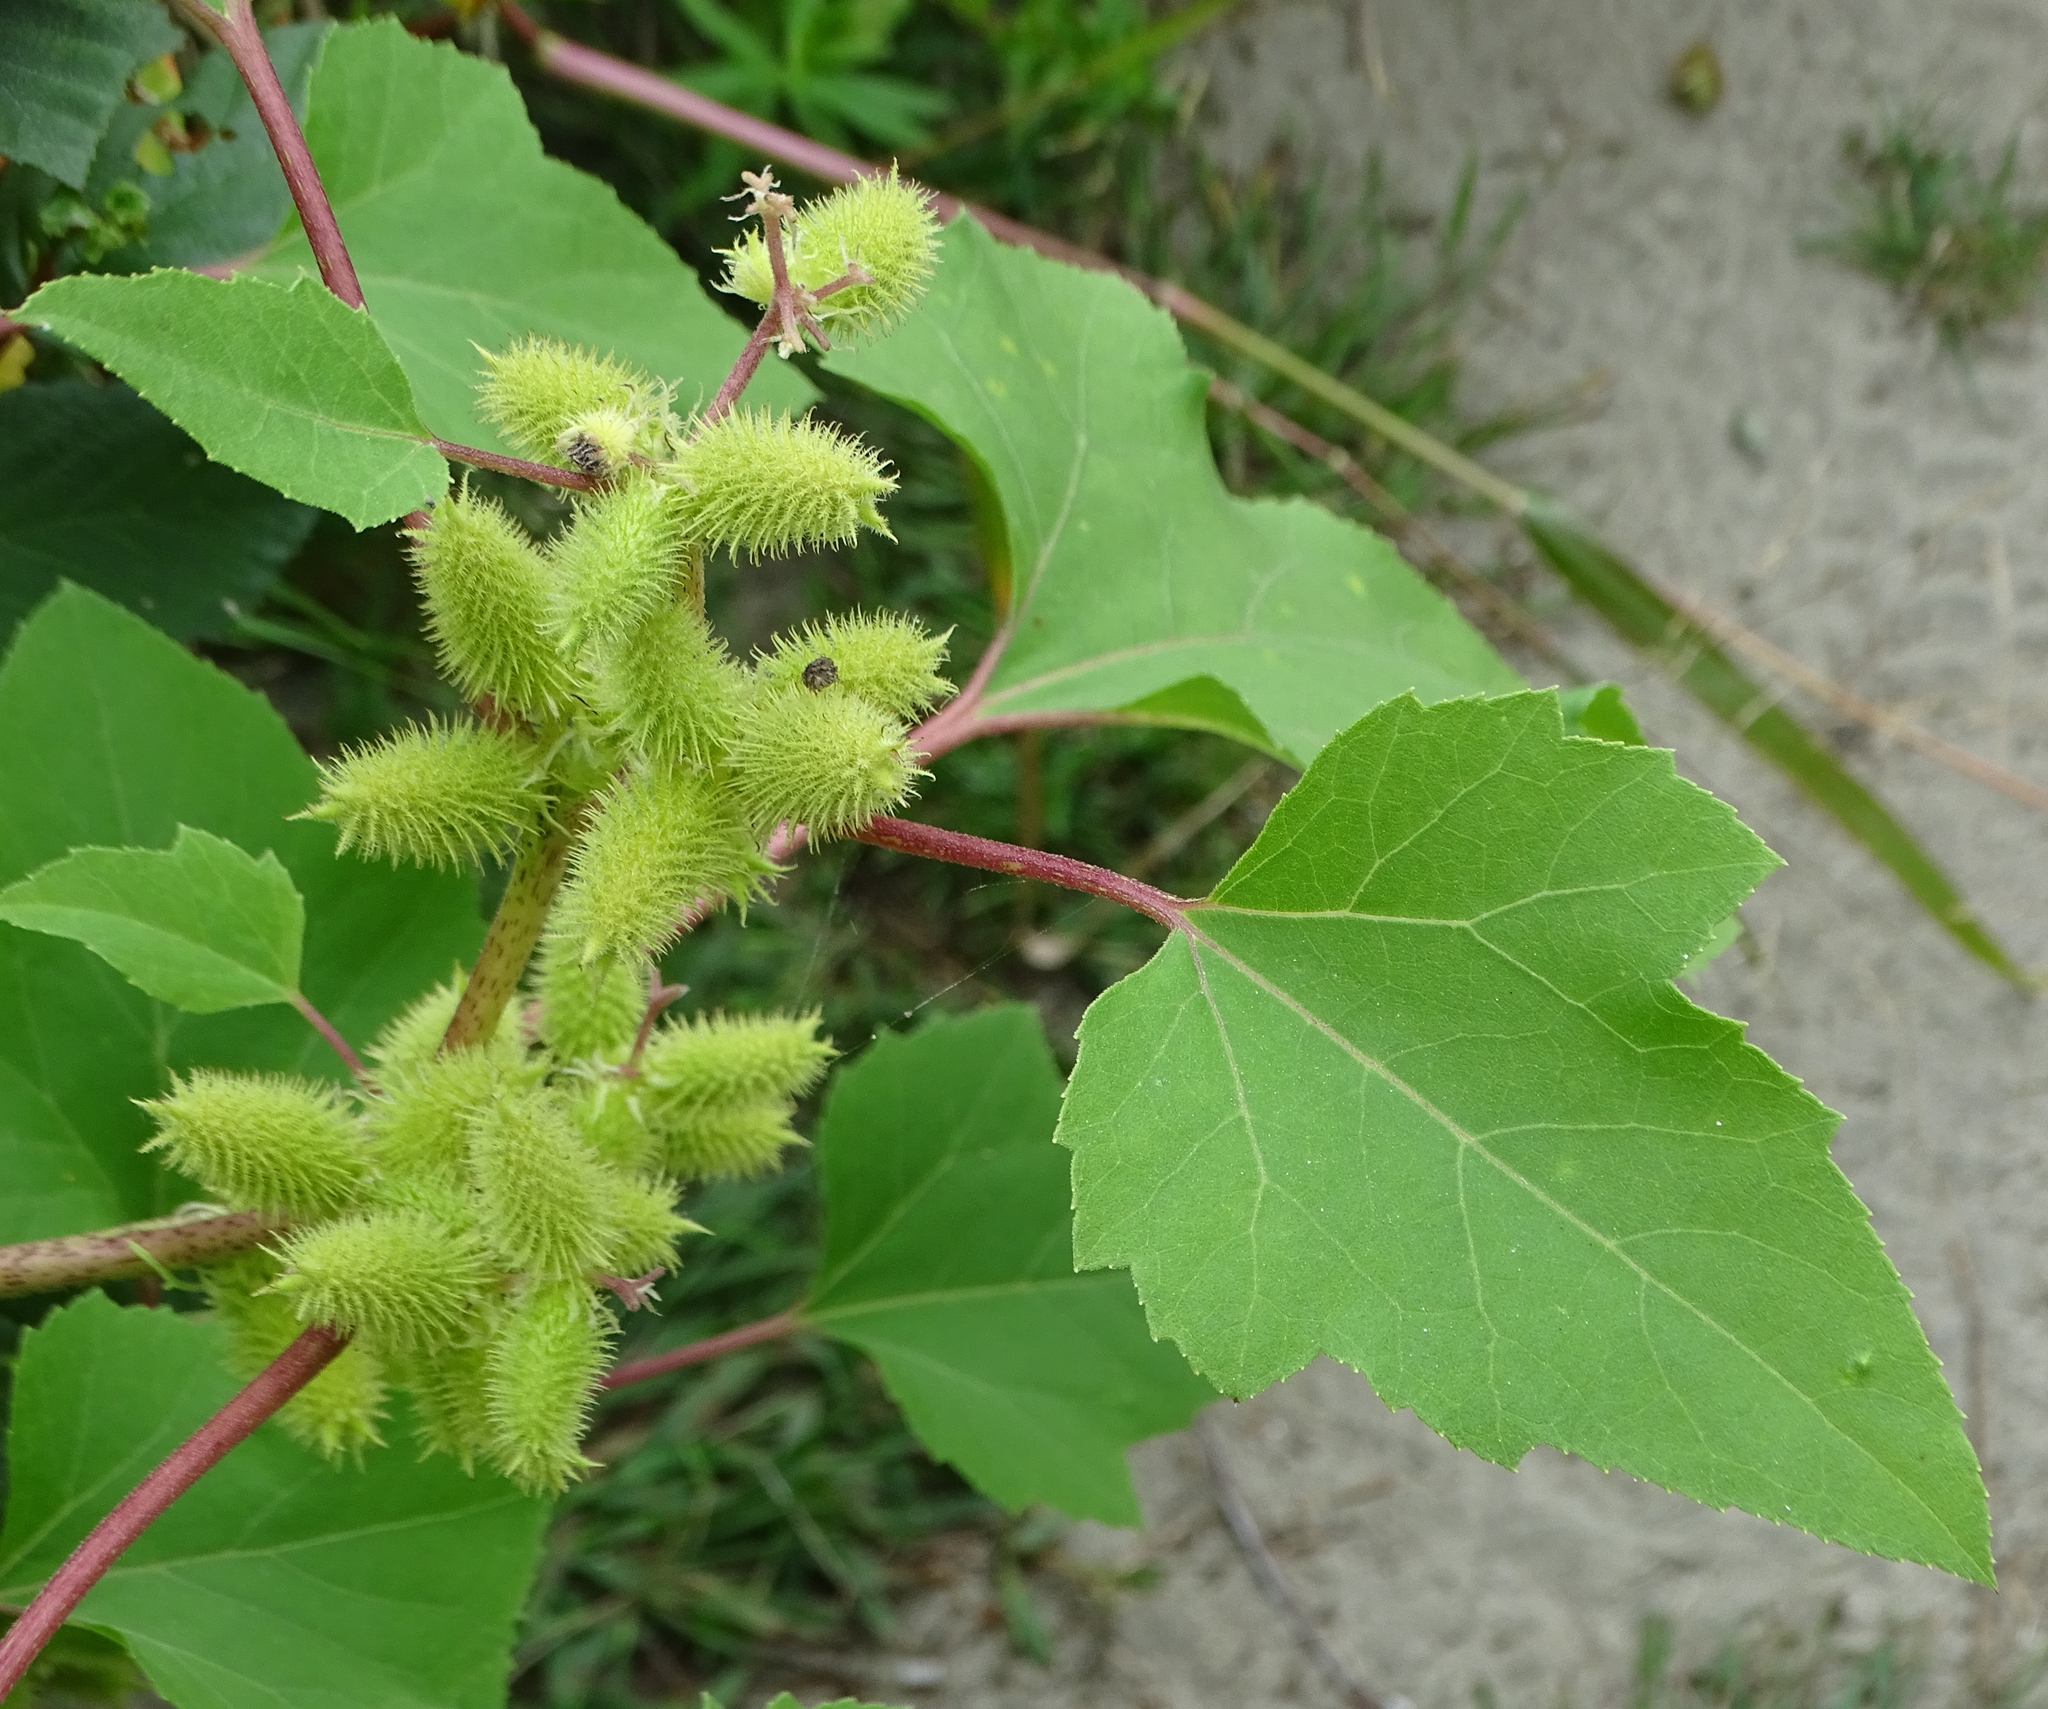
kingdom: Plantae
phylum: Tracheophyta
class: Magnoliopsida
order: Asterales
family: Asteraceae
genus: Xanthium
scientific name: Xanthium strumarium
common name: Rough cocklebur
